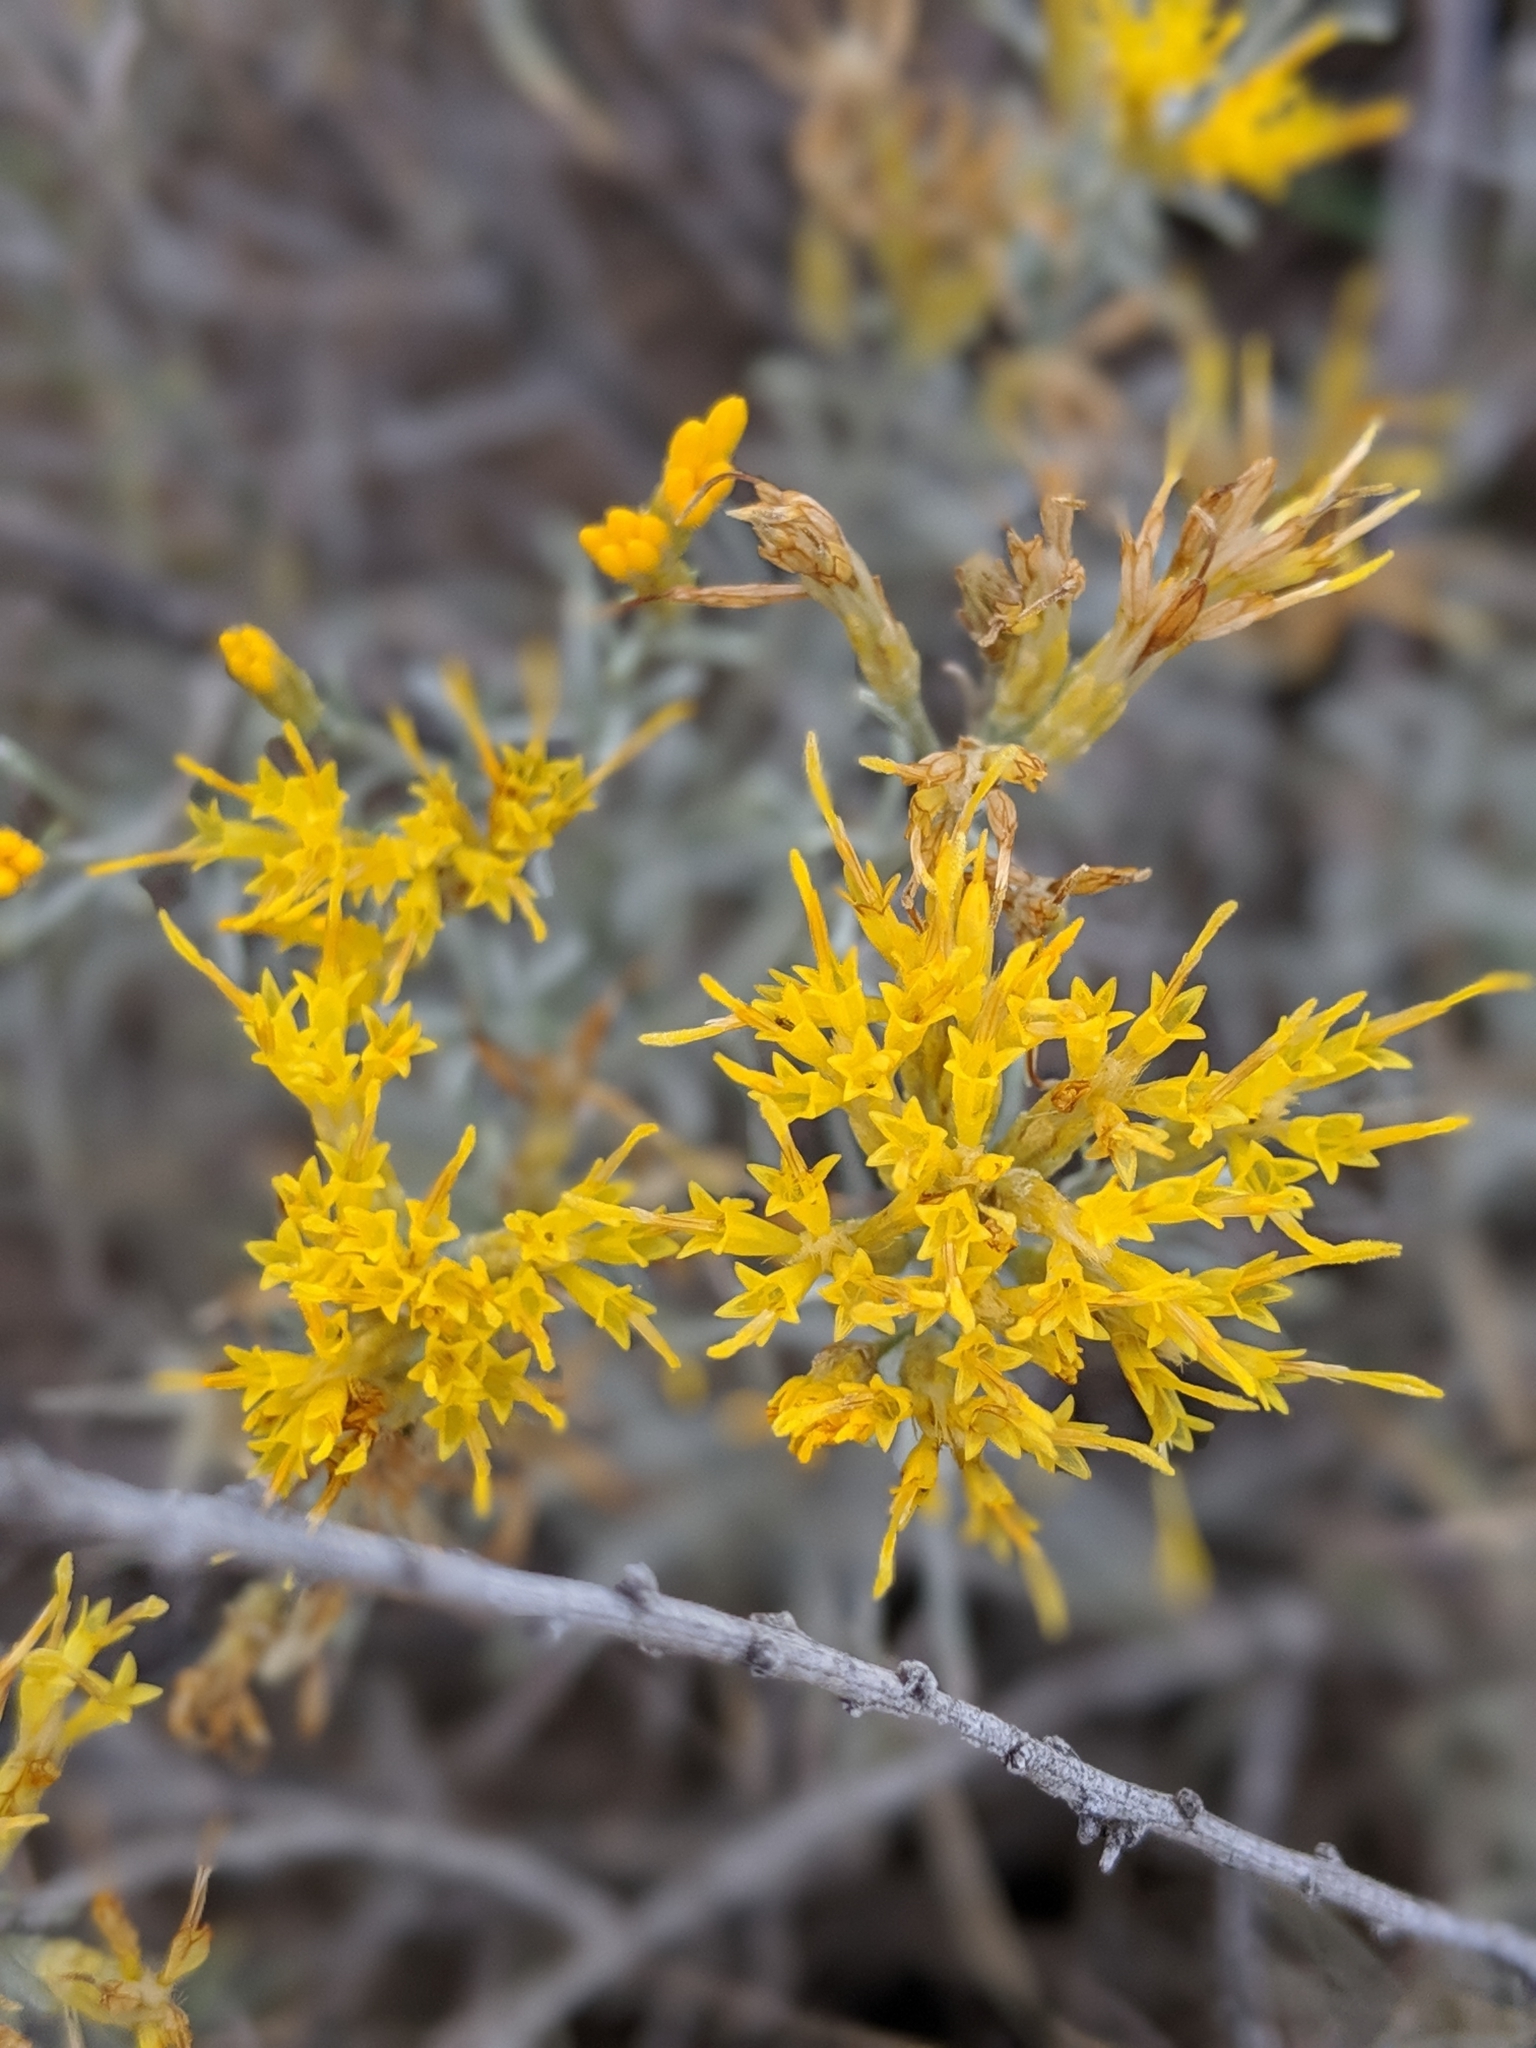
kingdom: Plantae
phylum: Tracheophyta
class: Magnoliopsida
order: Asterales
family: Asteraceae
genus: Ericameria
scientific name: Ericameria nauseosa
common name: Rubber rabbitbrush
